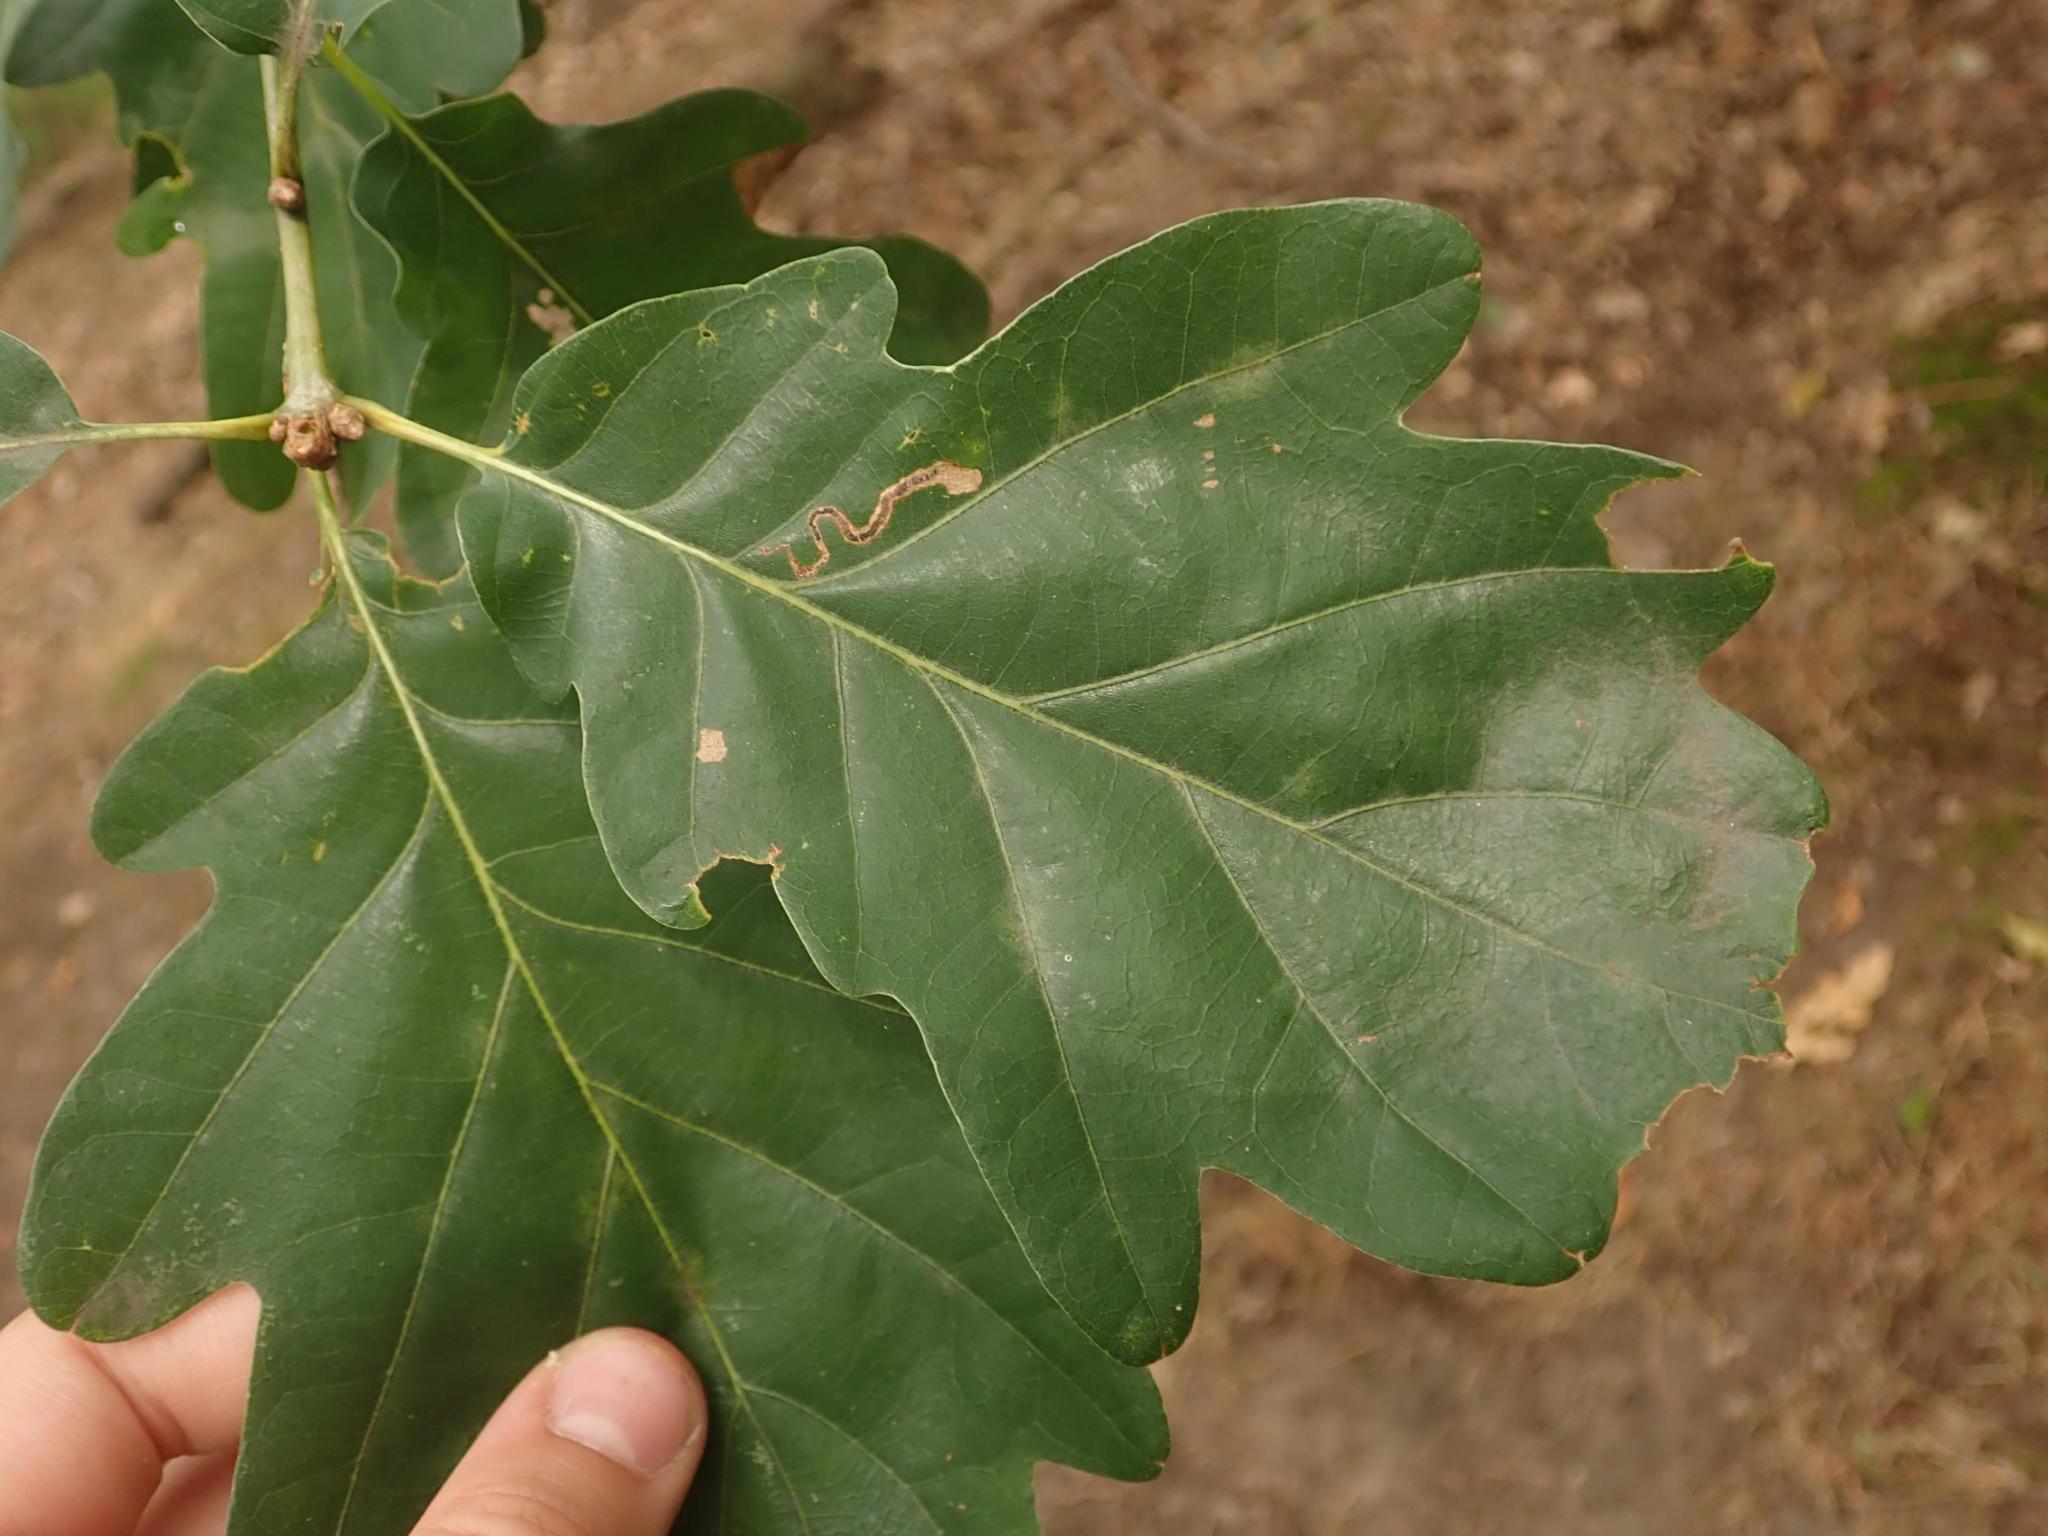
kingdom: Plantae
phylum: Tracheophyta
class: Magnoliopsida
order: Fagales
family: Fagaceae
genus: Quercus
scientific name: Quercus robur
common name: Pedunculate oak
